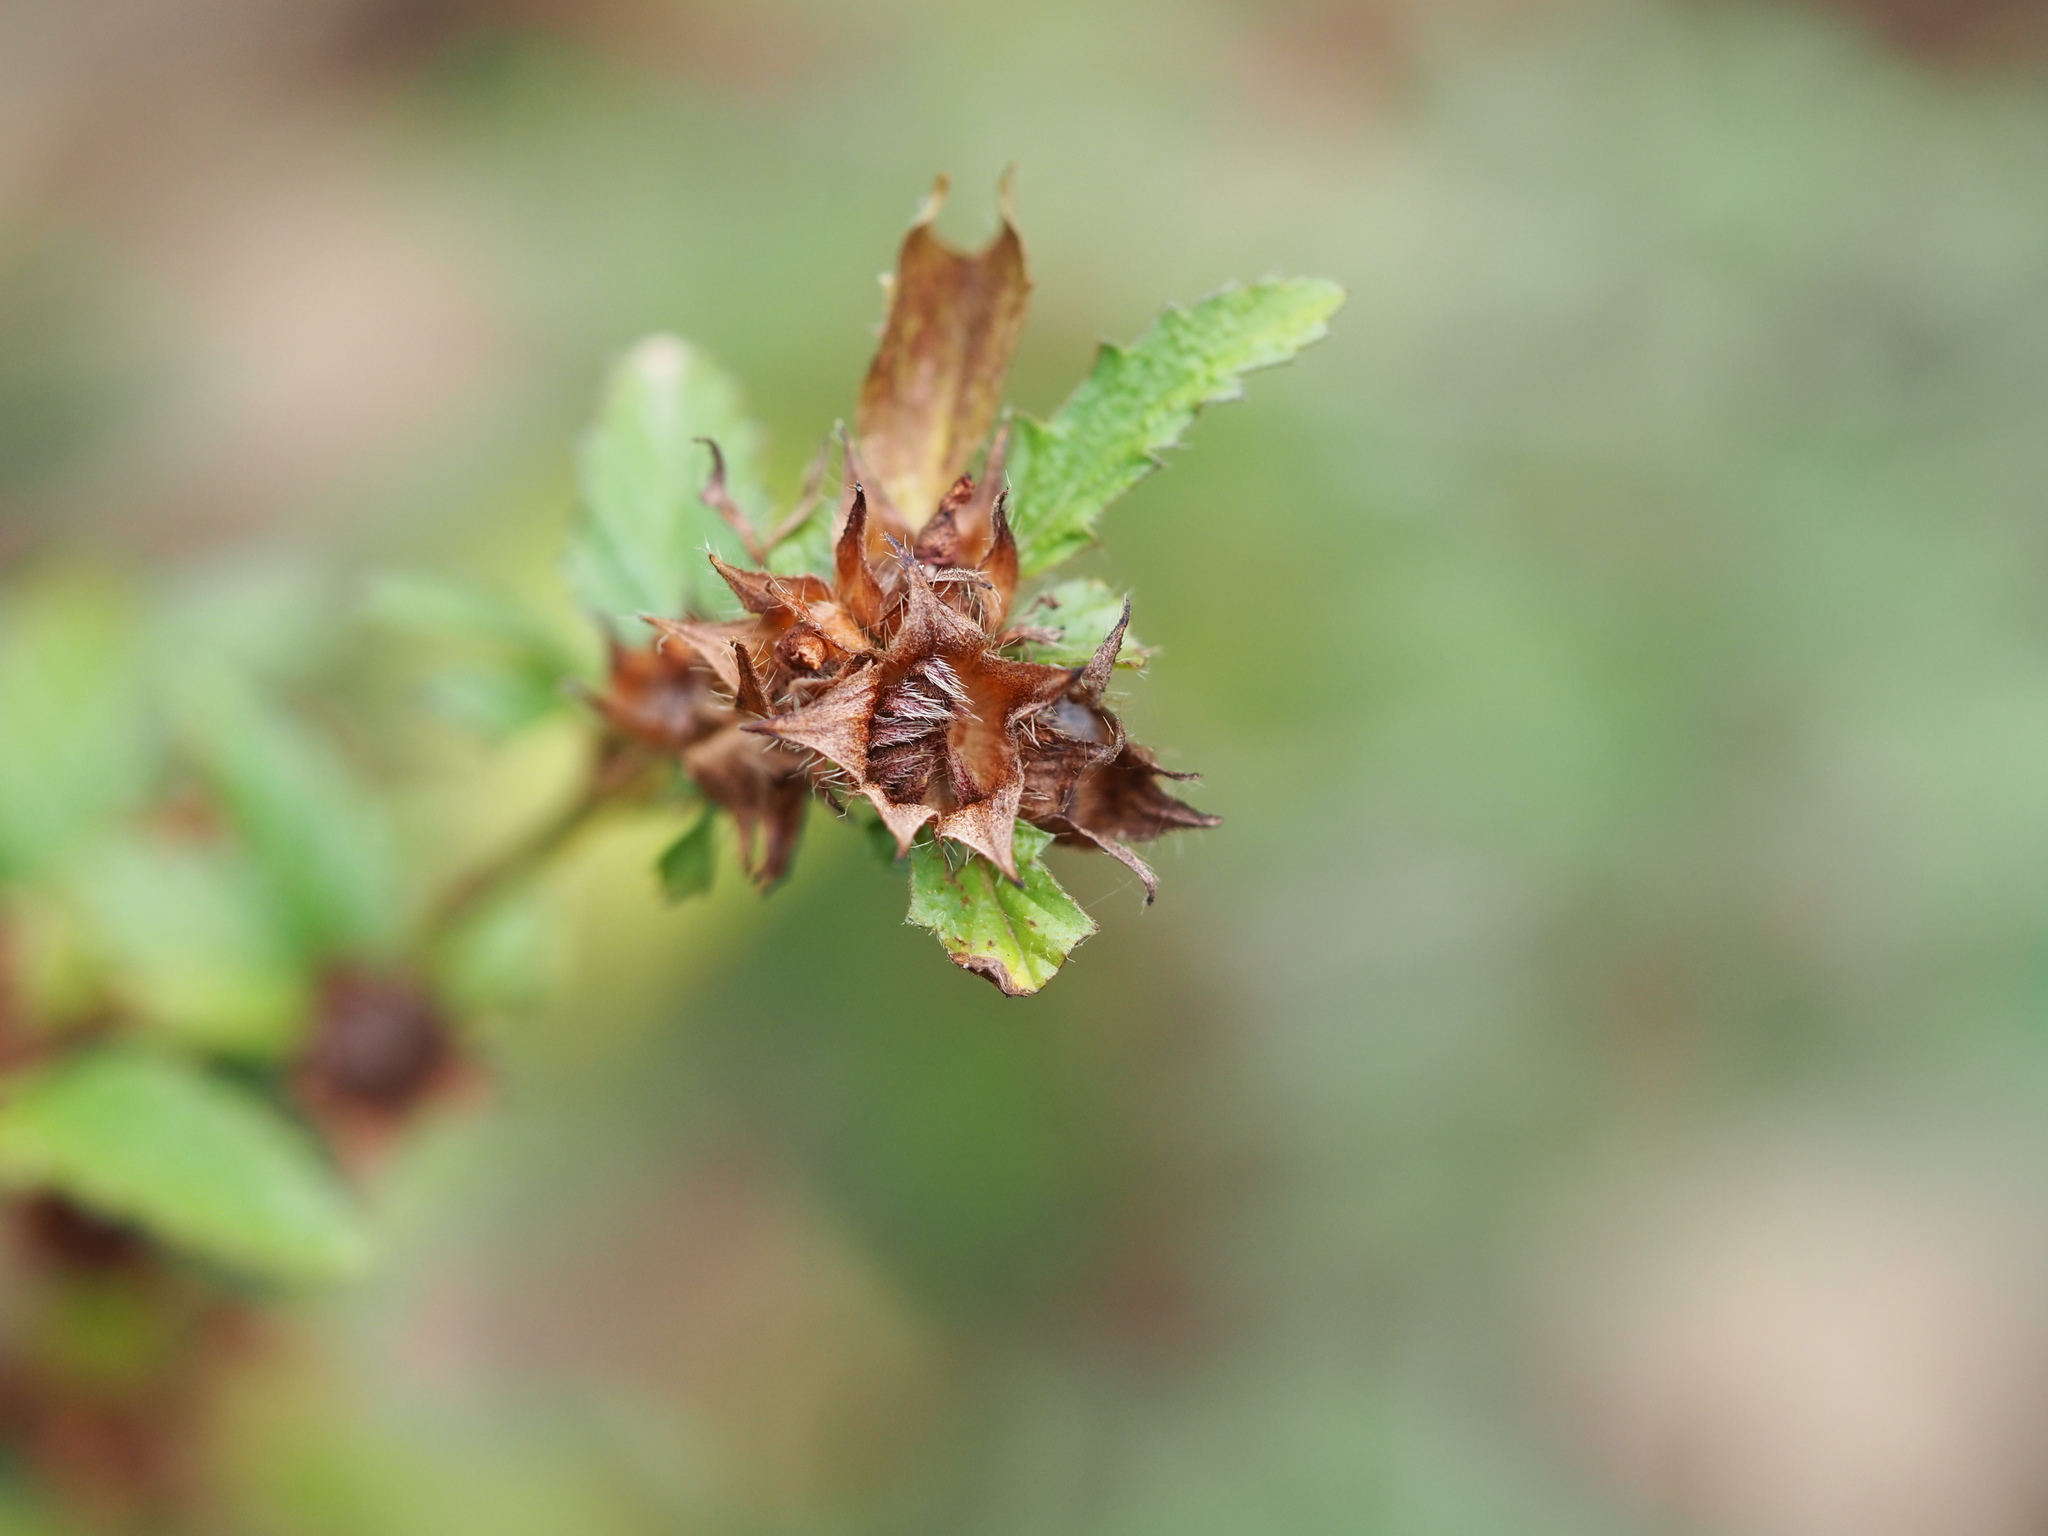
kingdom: Plantae
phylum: Tracheophyta
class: Magnoliopsida
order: Malvales
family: Malvaceae
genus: Malvastrum
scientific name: Malvastrum coromandelianum
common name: Threelobe false mallow
